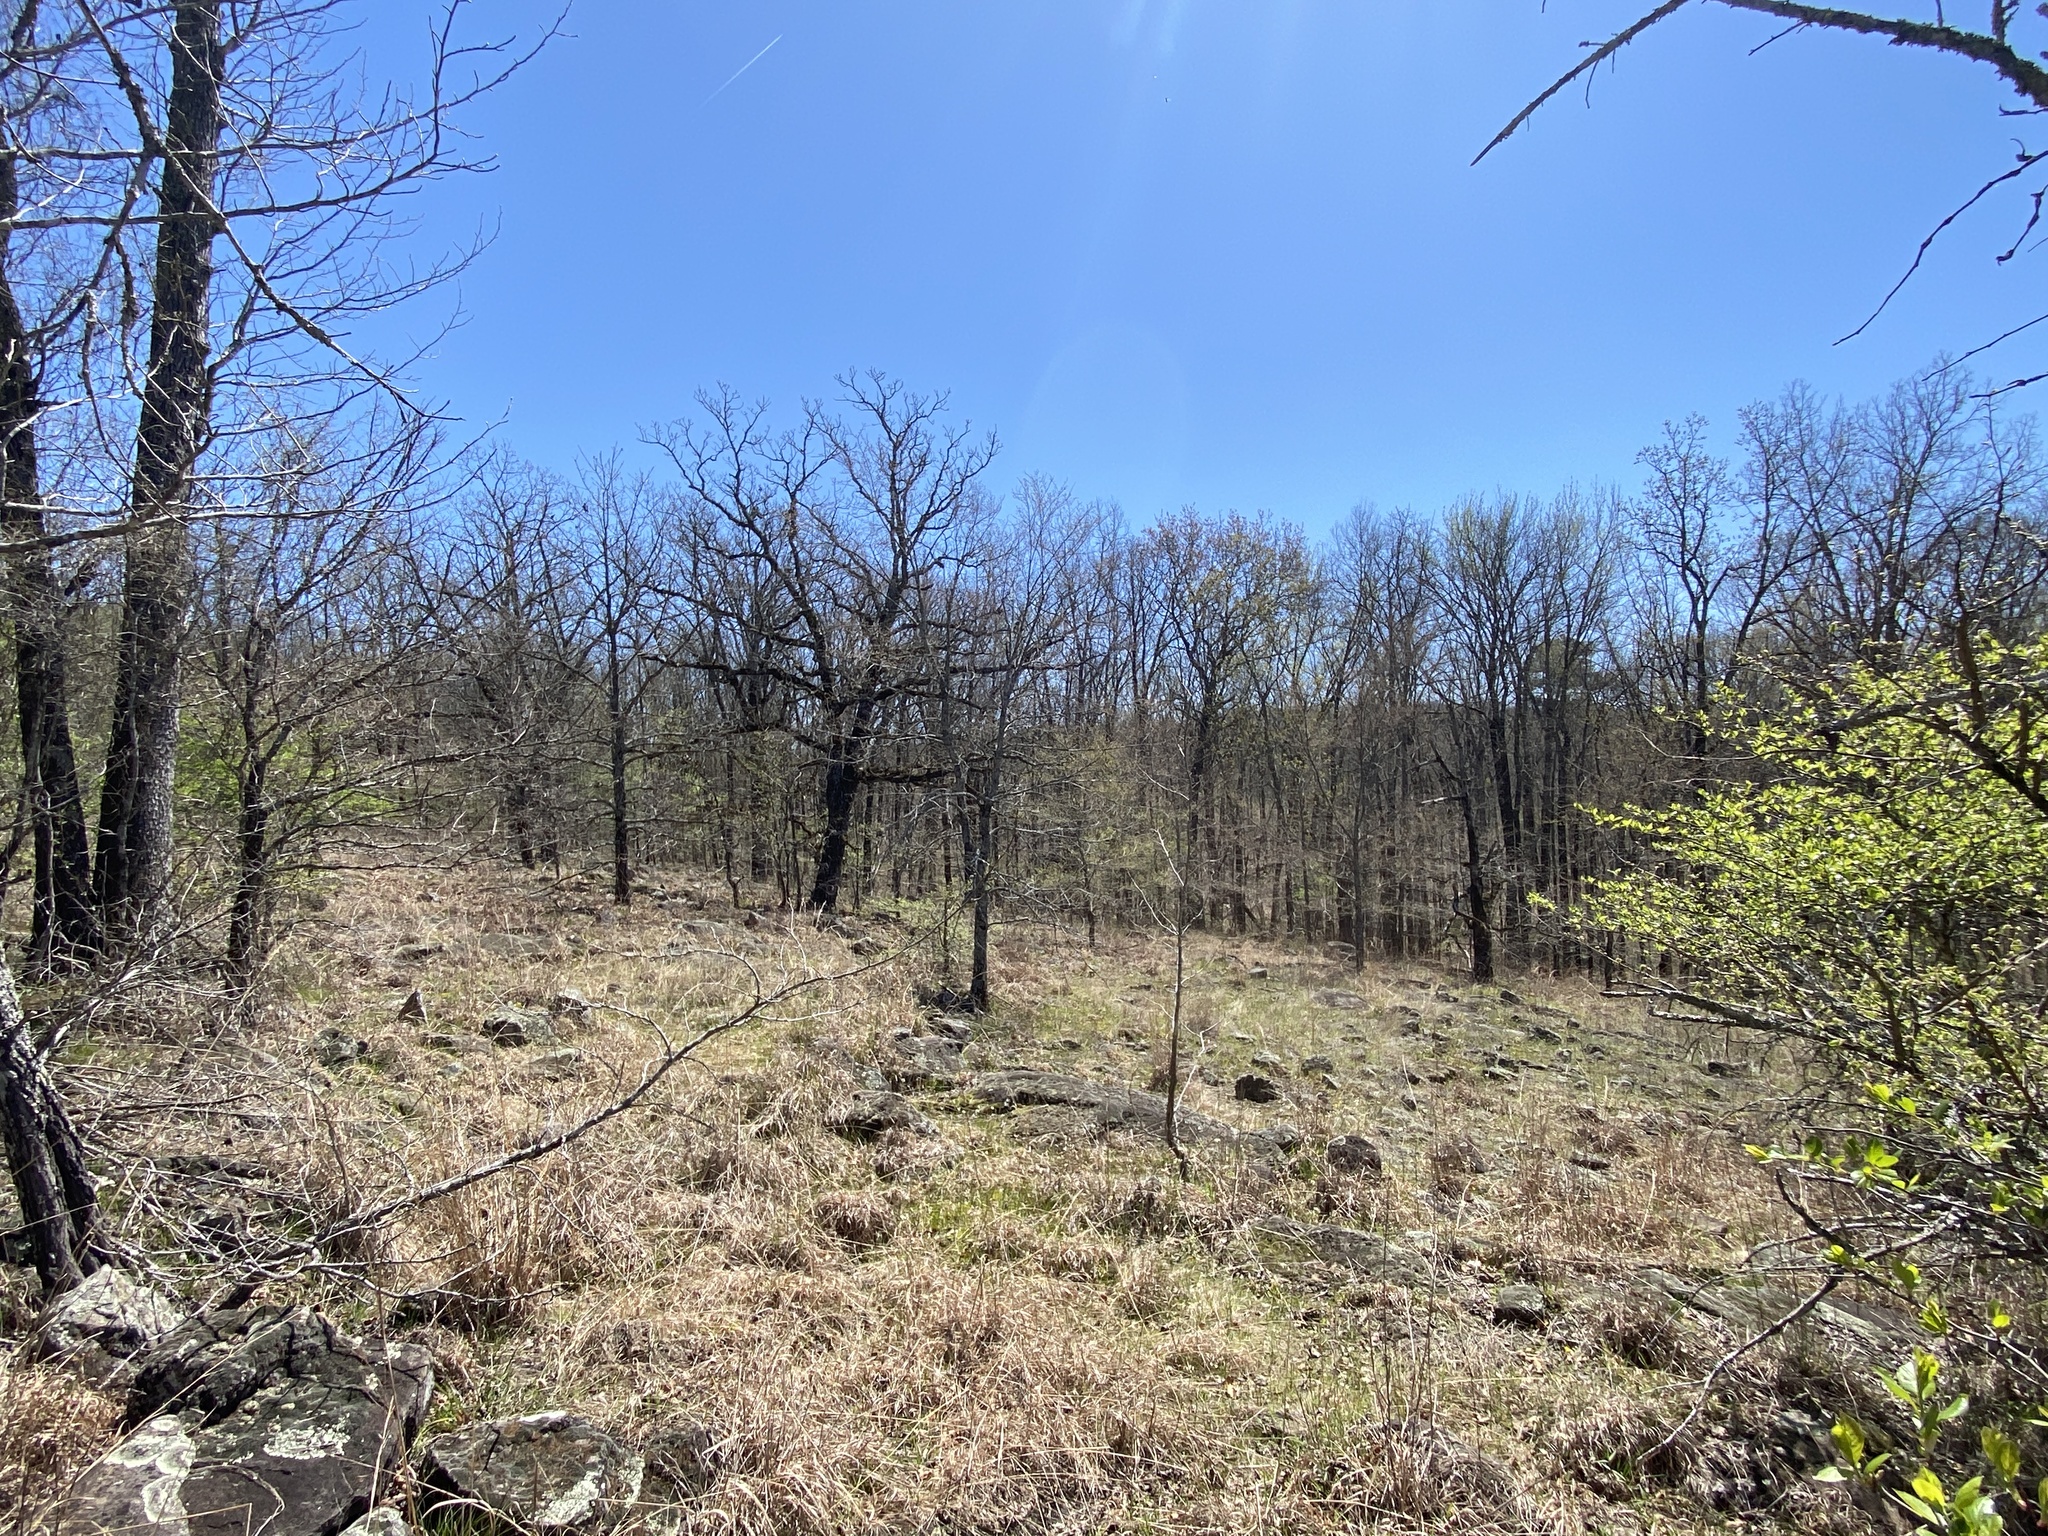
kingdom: Plantae
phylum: Tracheophyta
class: Magnoliopsida
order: Fagales
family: Fagaceae
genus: Quercus
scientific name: Quercus stellata
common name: Post oak
